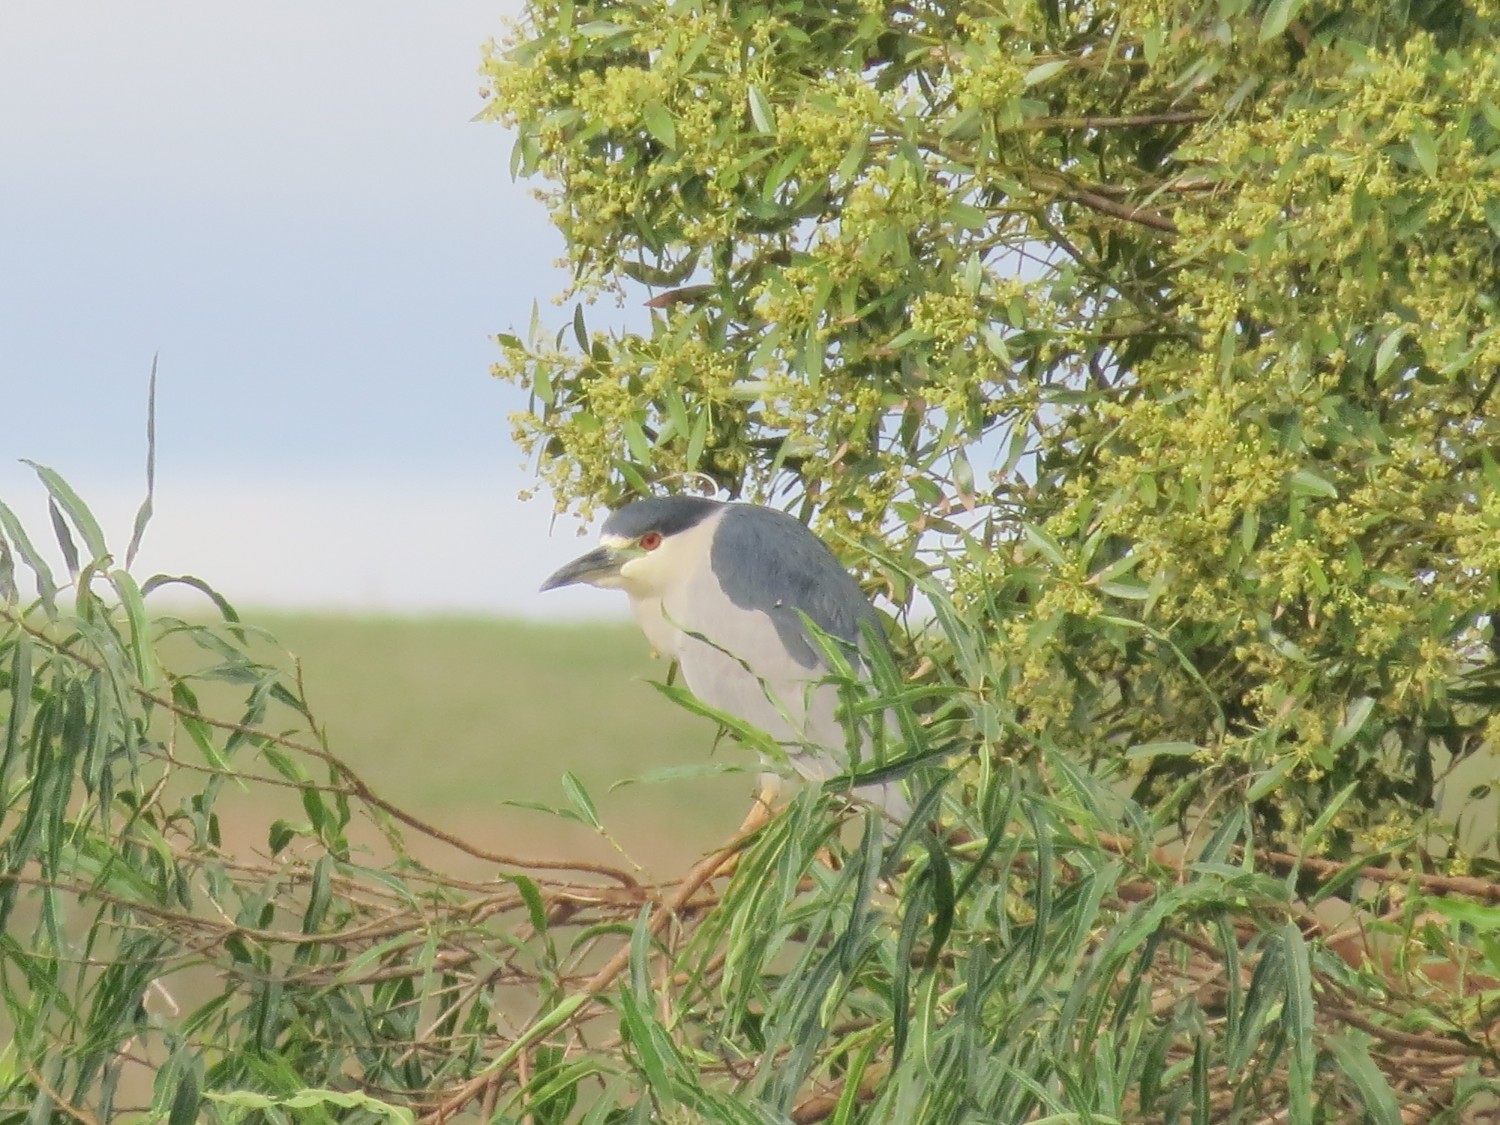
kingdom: Animalia
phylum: Chordata
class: Aves
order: Pelecaniformes
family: Ardeidae
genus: Nycticorax
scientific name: Nycticorax nycticorax
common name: Black-crowned night heron
